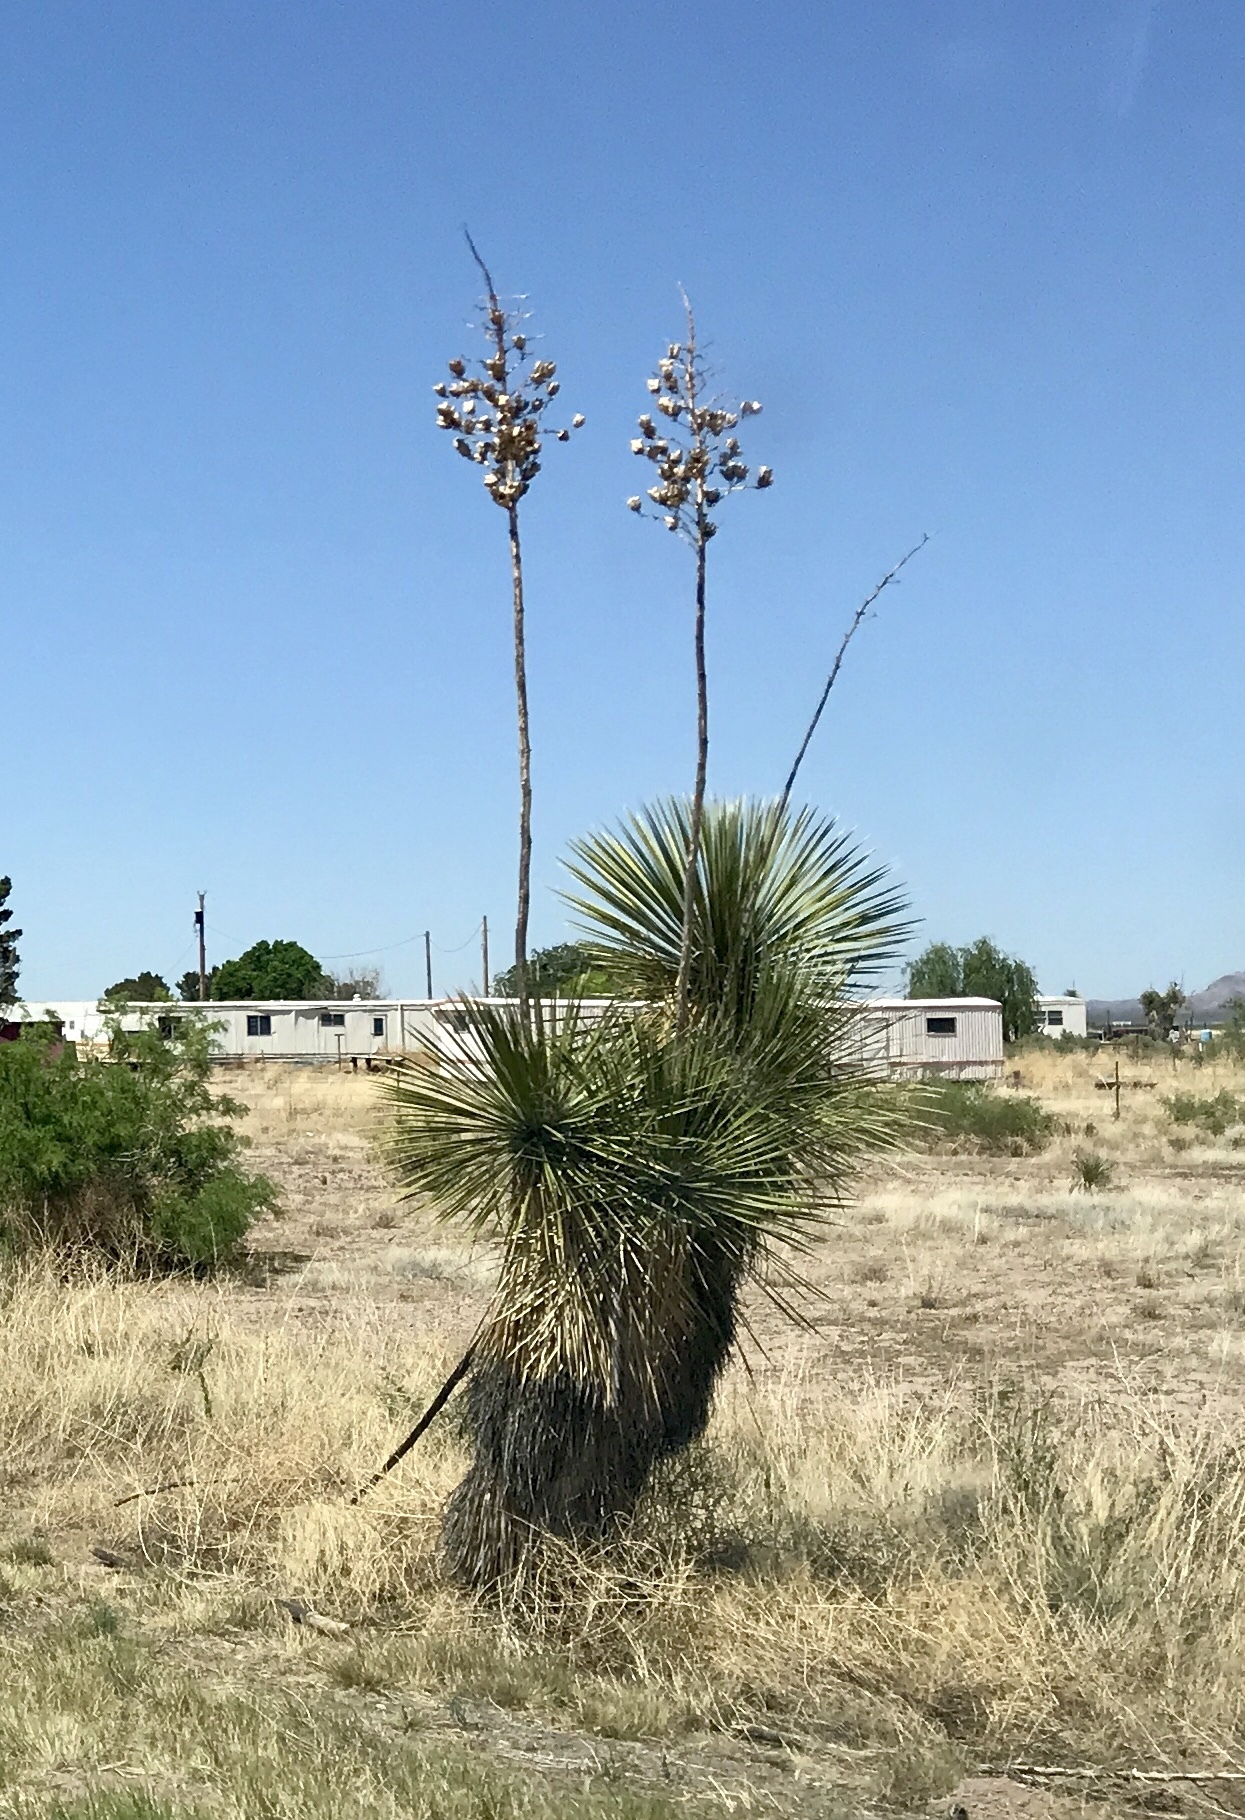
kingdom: Plantae
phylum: Tracheophyta
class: Liliopsida
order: Asparagales
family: Asparagaceae
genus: Yucca
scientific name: Yucca elata
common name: Palmella
